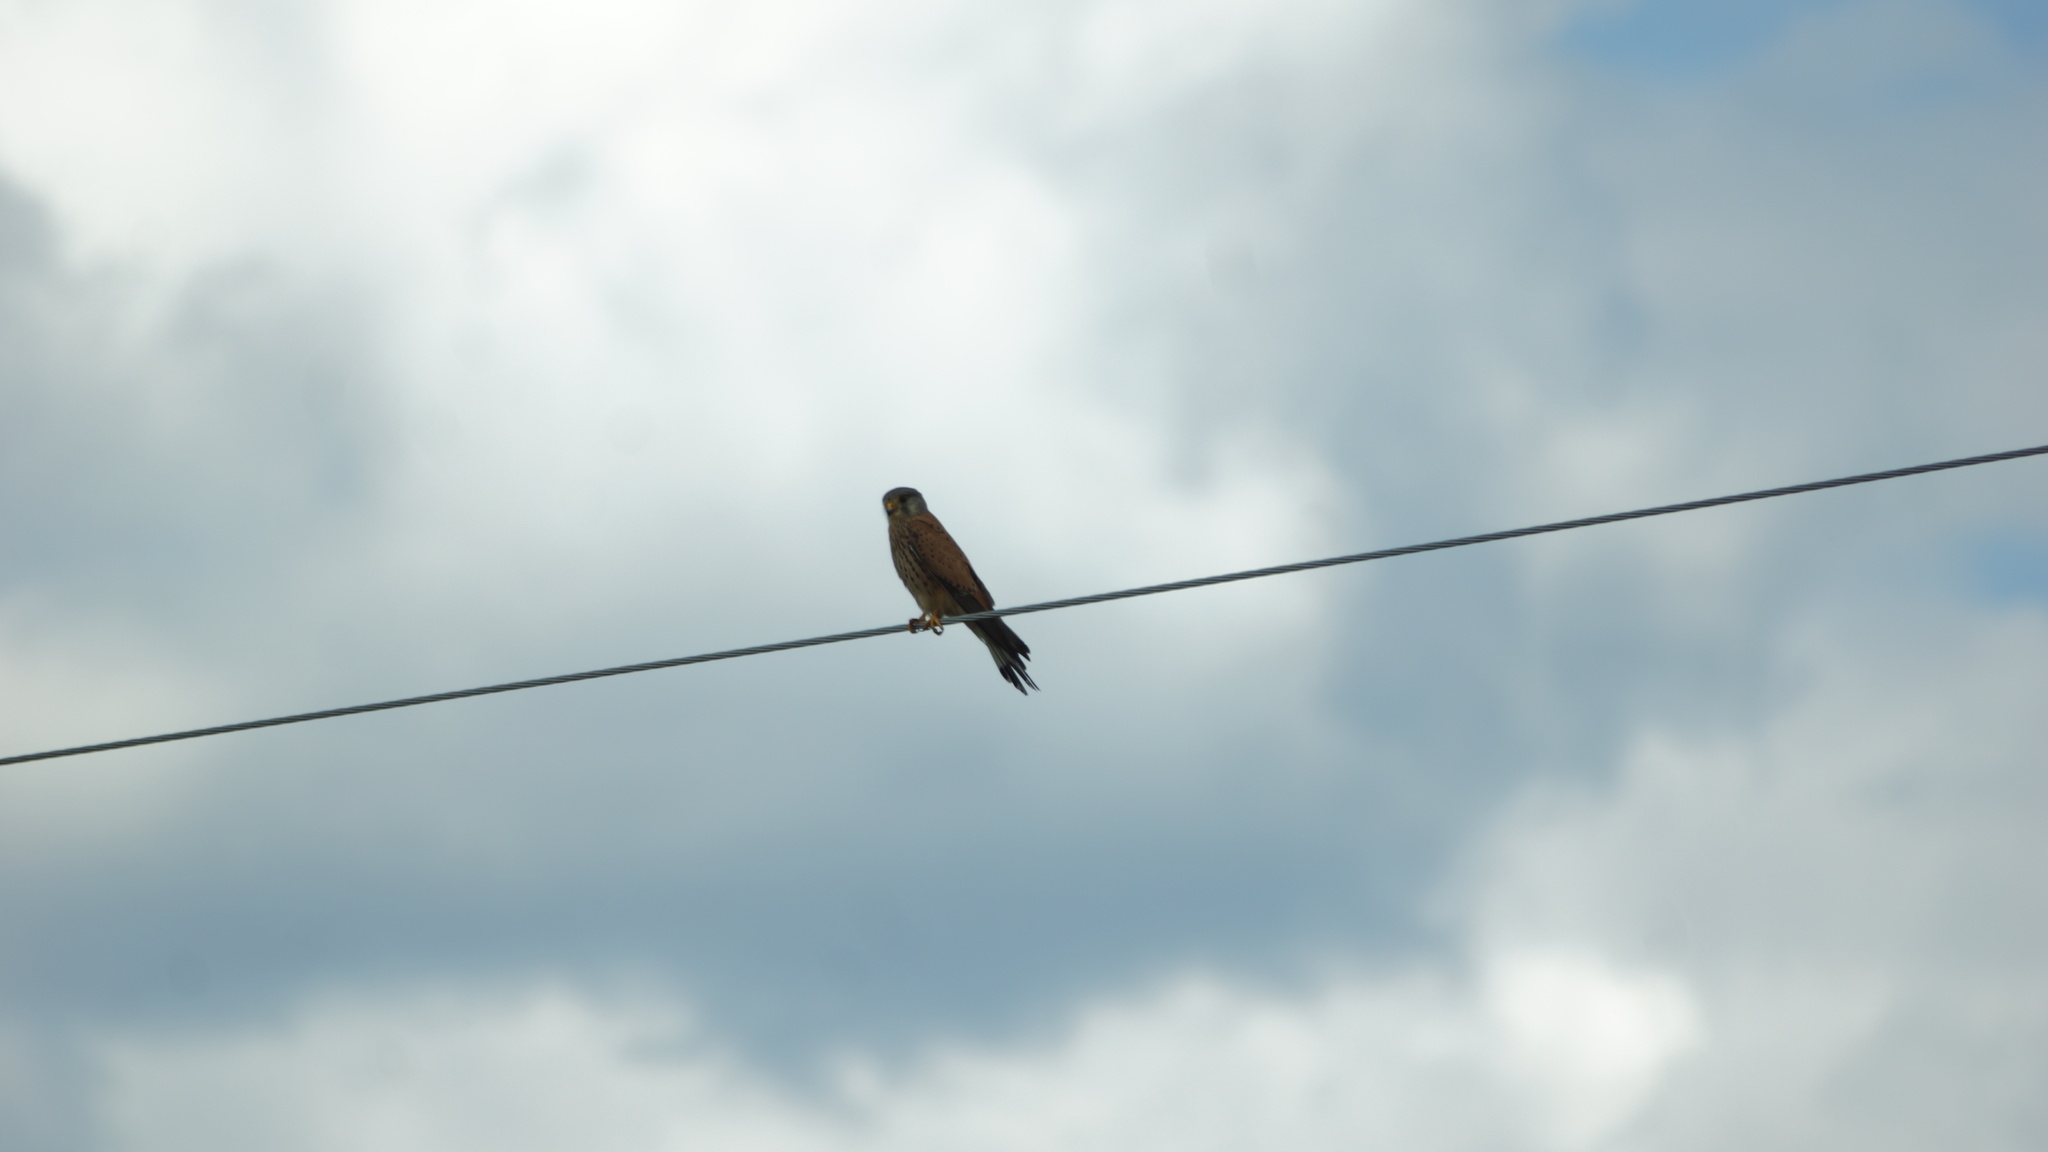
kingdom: Animalia
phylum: Chordata
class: Aves
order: Falconiformes
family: Falconidae
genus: Falco
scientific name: Falco tinnunculus
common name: Common kestrel
